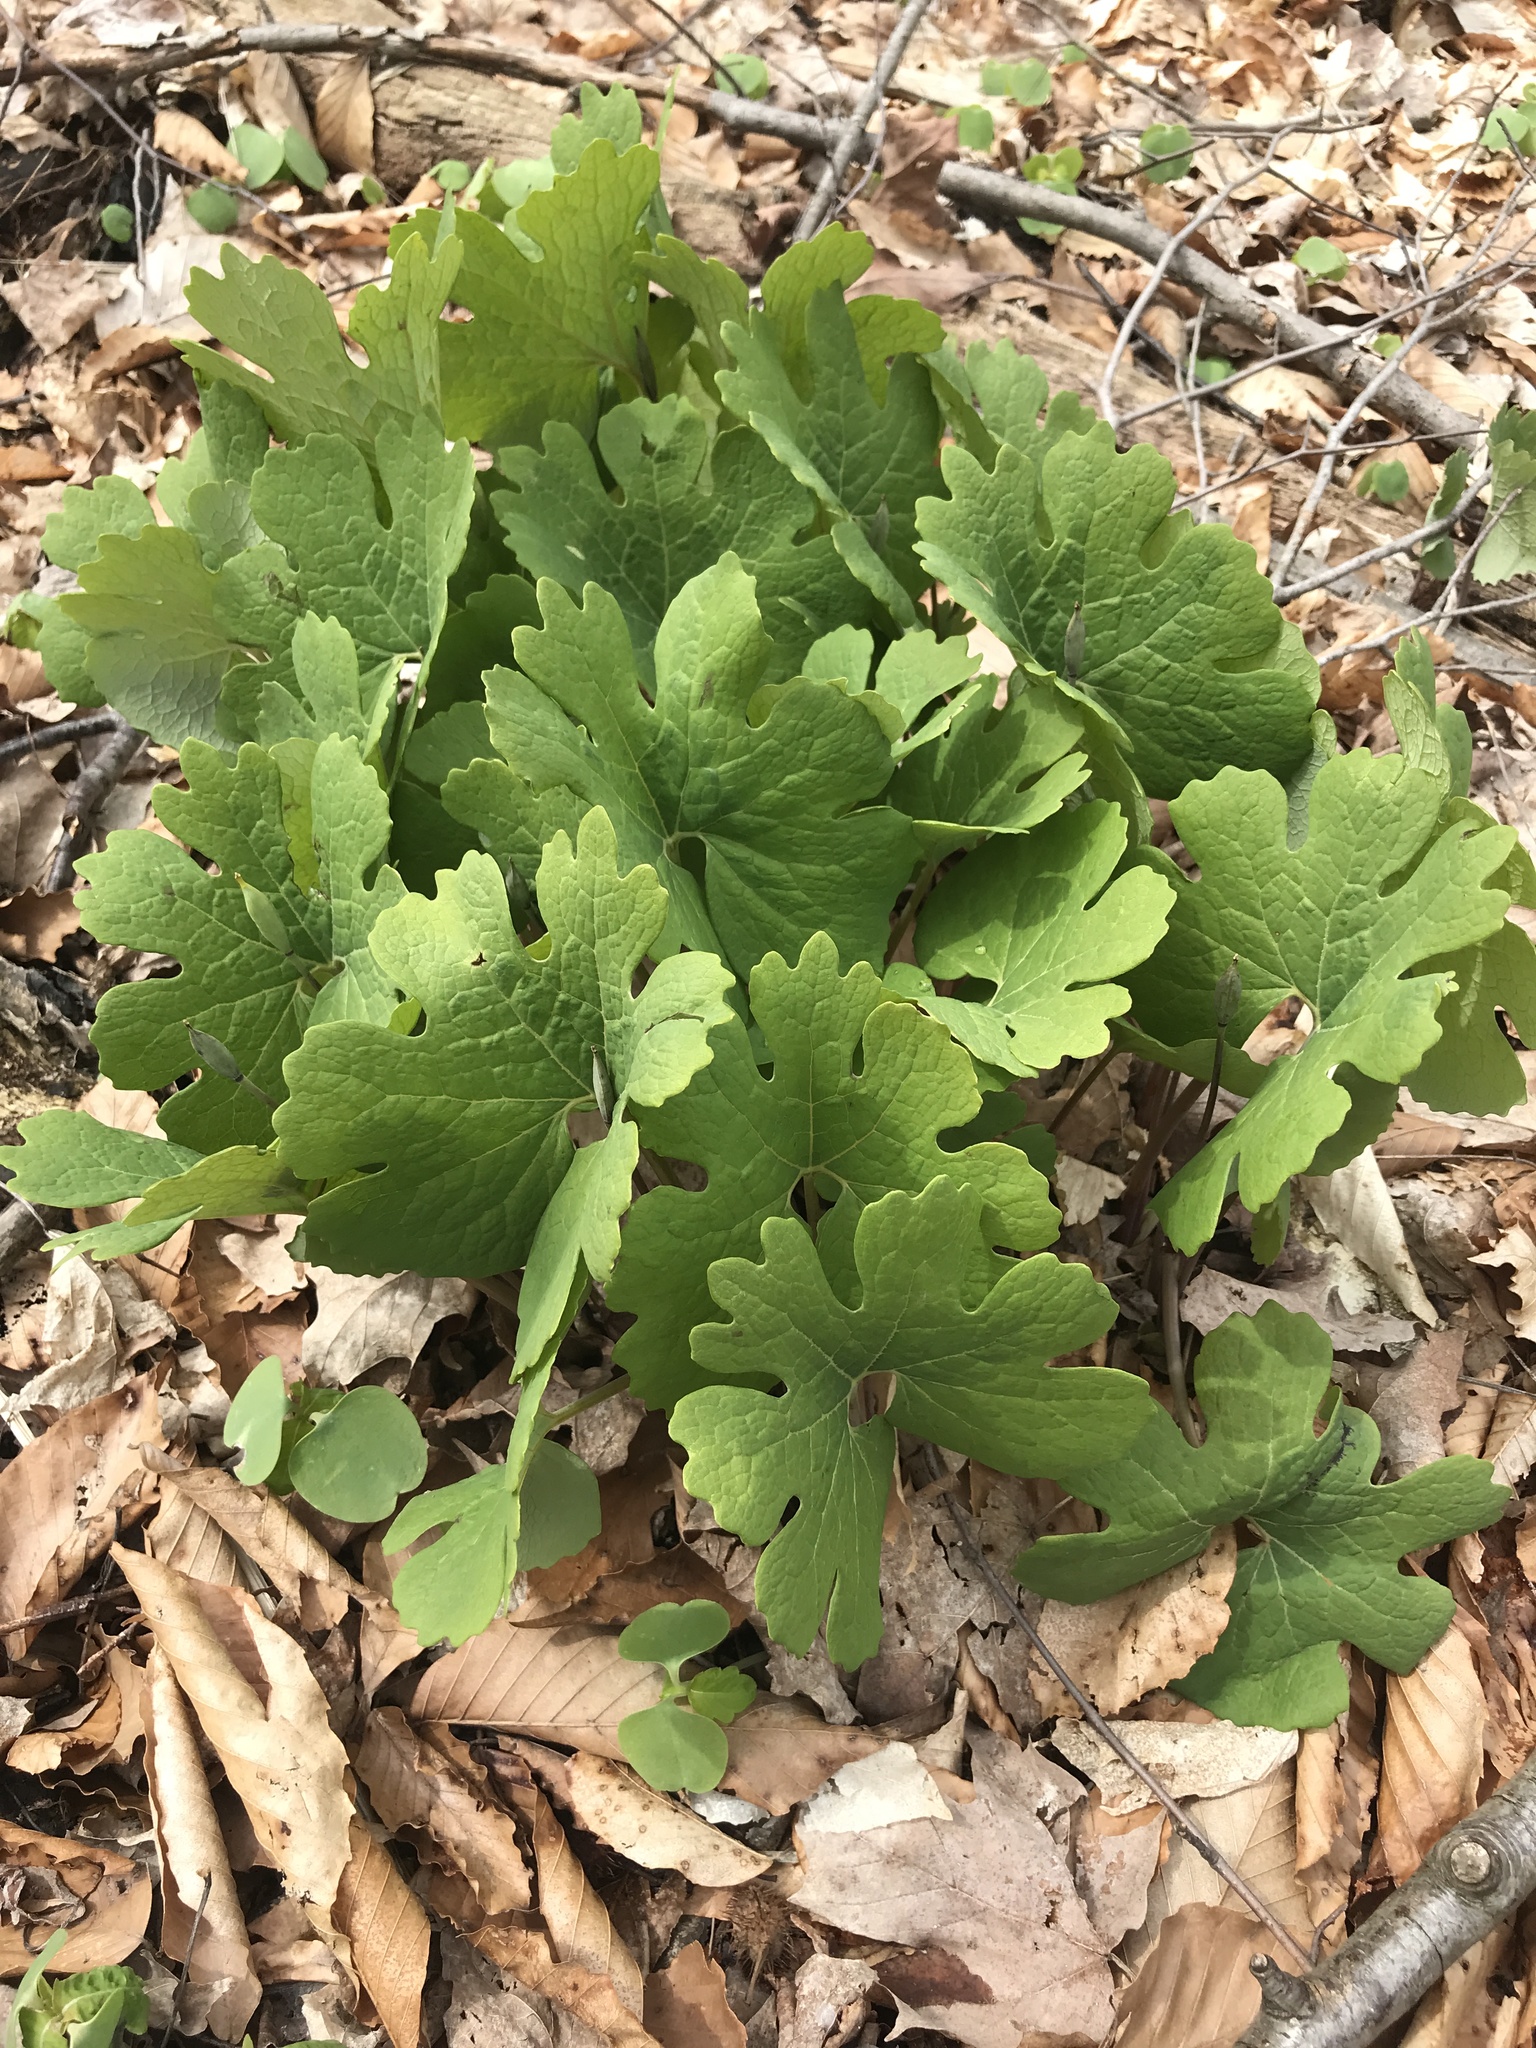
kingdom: Plantae
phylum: Tracheophyta
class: Magnoliopsida
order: Ranunculales
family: Papaveraceae
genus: Sanguinaria
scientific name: Sanguinaria canadensis
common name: Bloodroot
